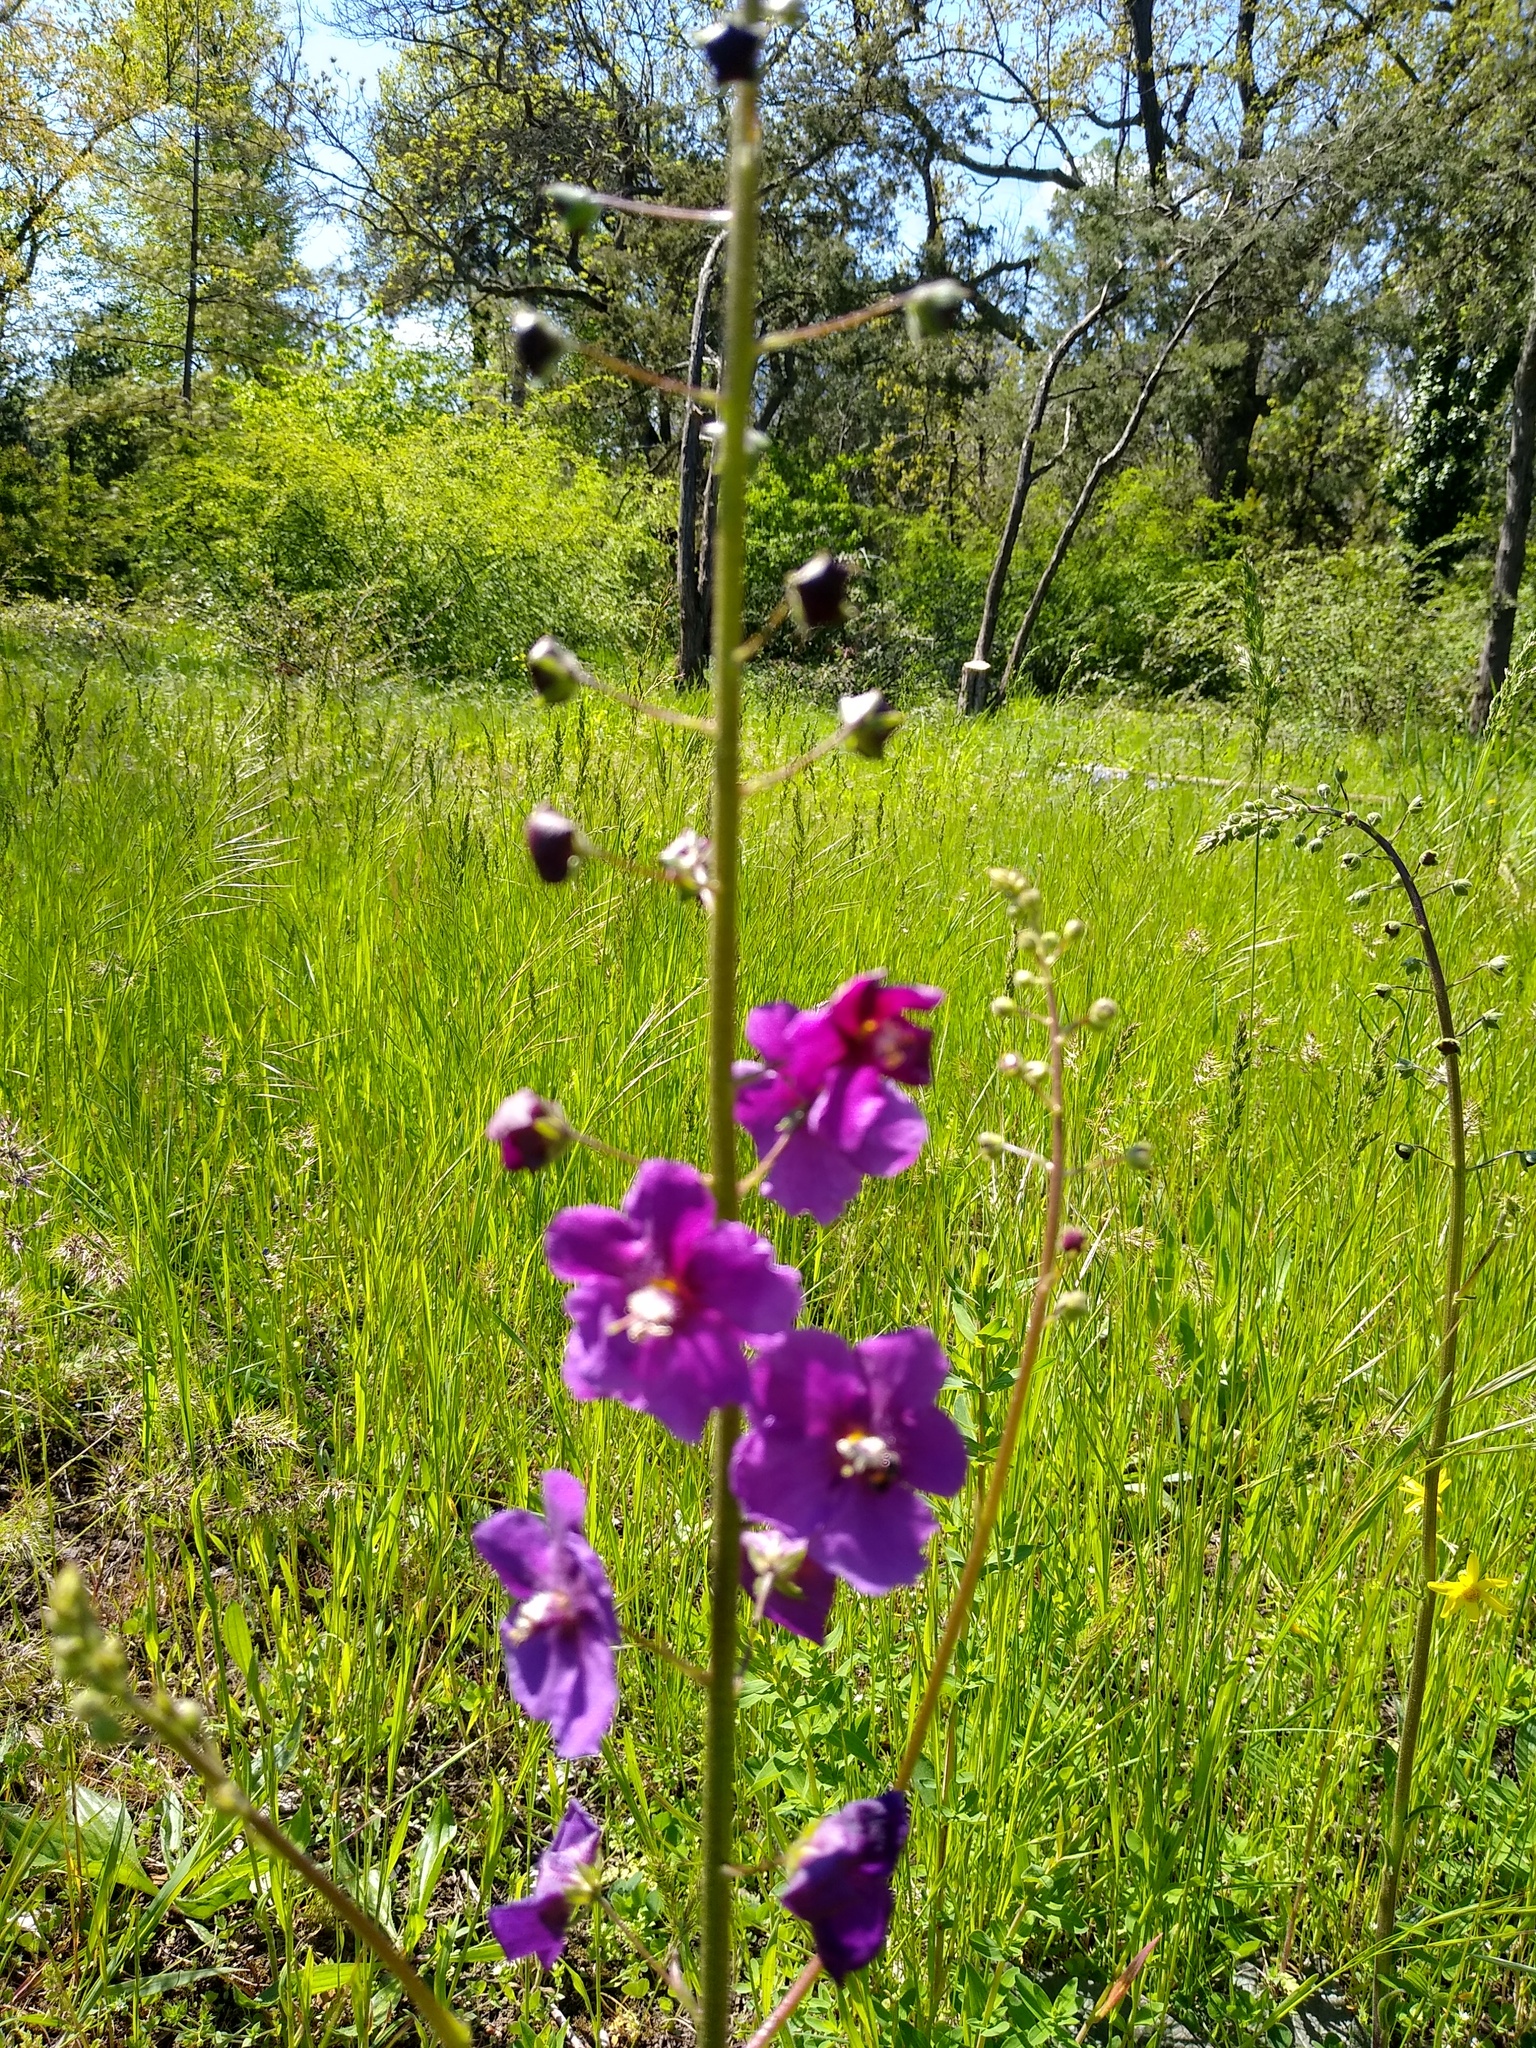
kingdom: Plantae
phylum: Tracheophyta
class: Magnoliopsida
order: Lamiales
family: Scrophulariaceae
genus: Verbascum
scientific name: Verbascum phoeniceum
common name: Purple mullein
